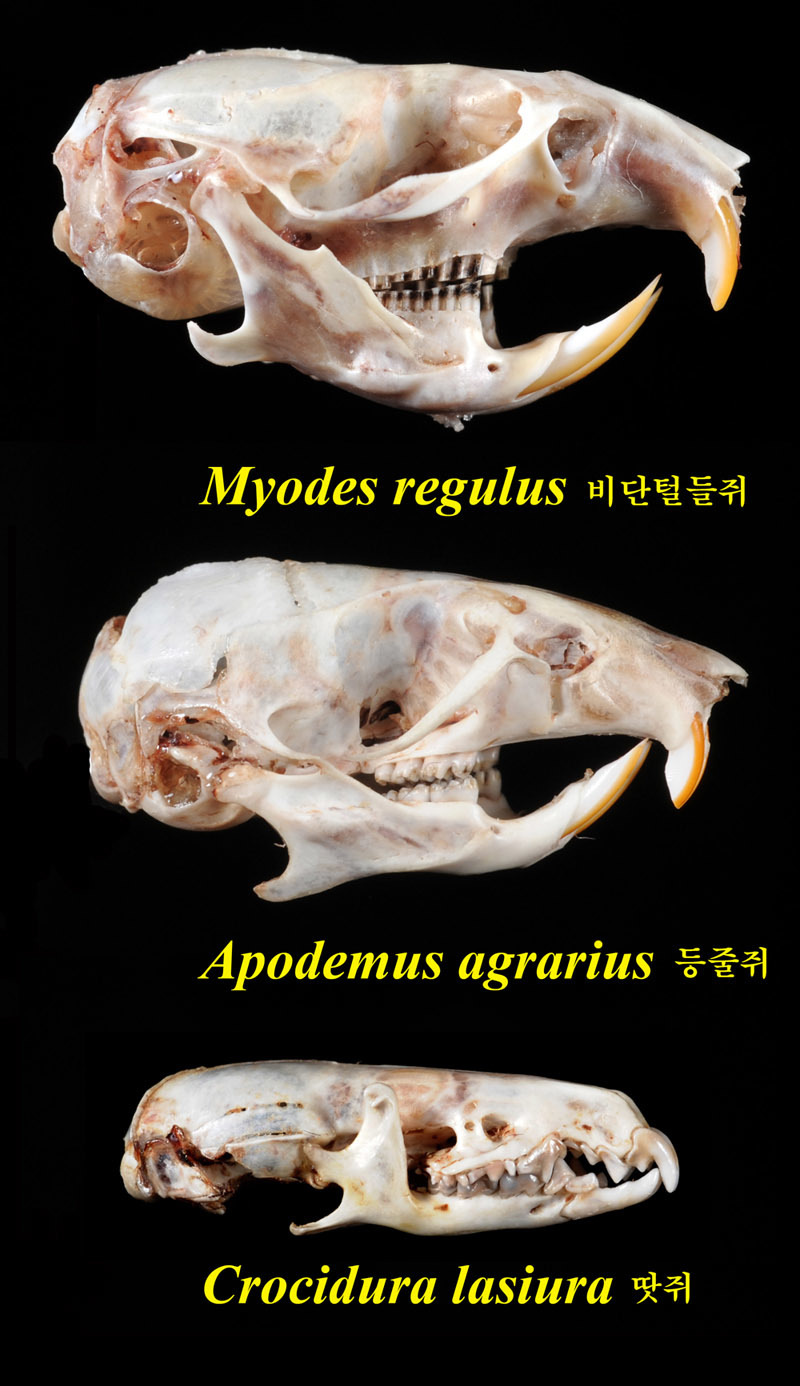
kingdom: Animalia
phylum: Chordata
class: Mammalia
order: Rodentia
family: Cricetidae
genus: Myodes
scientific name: Myodes regulus
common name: Korean red-backed vole
